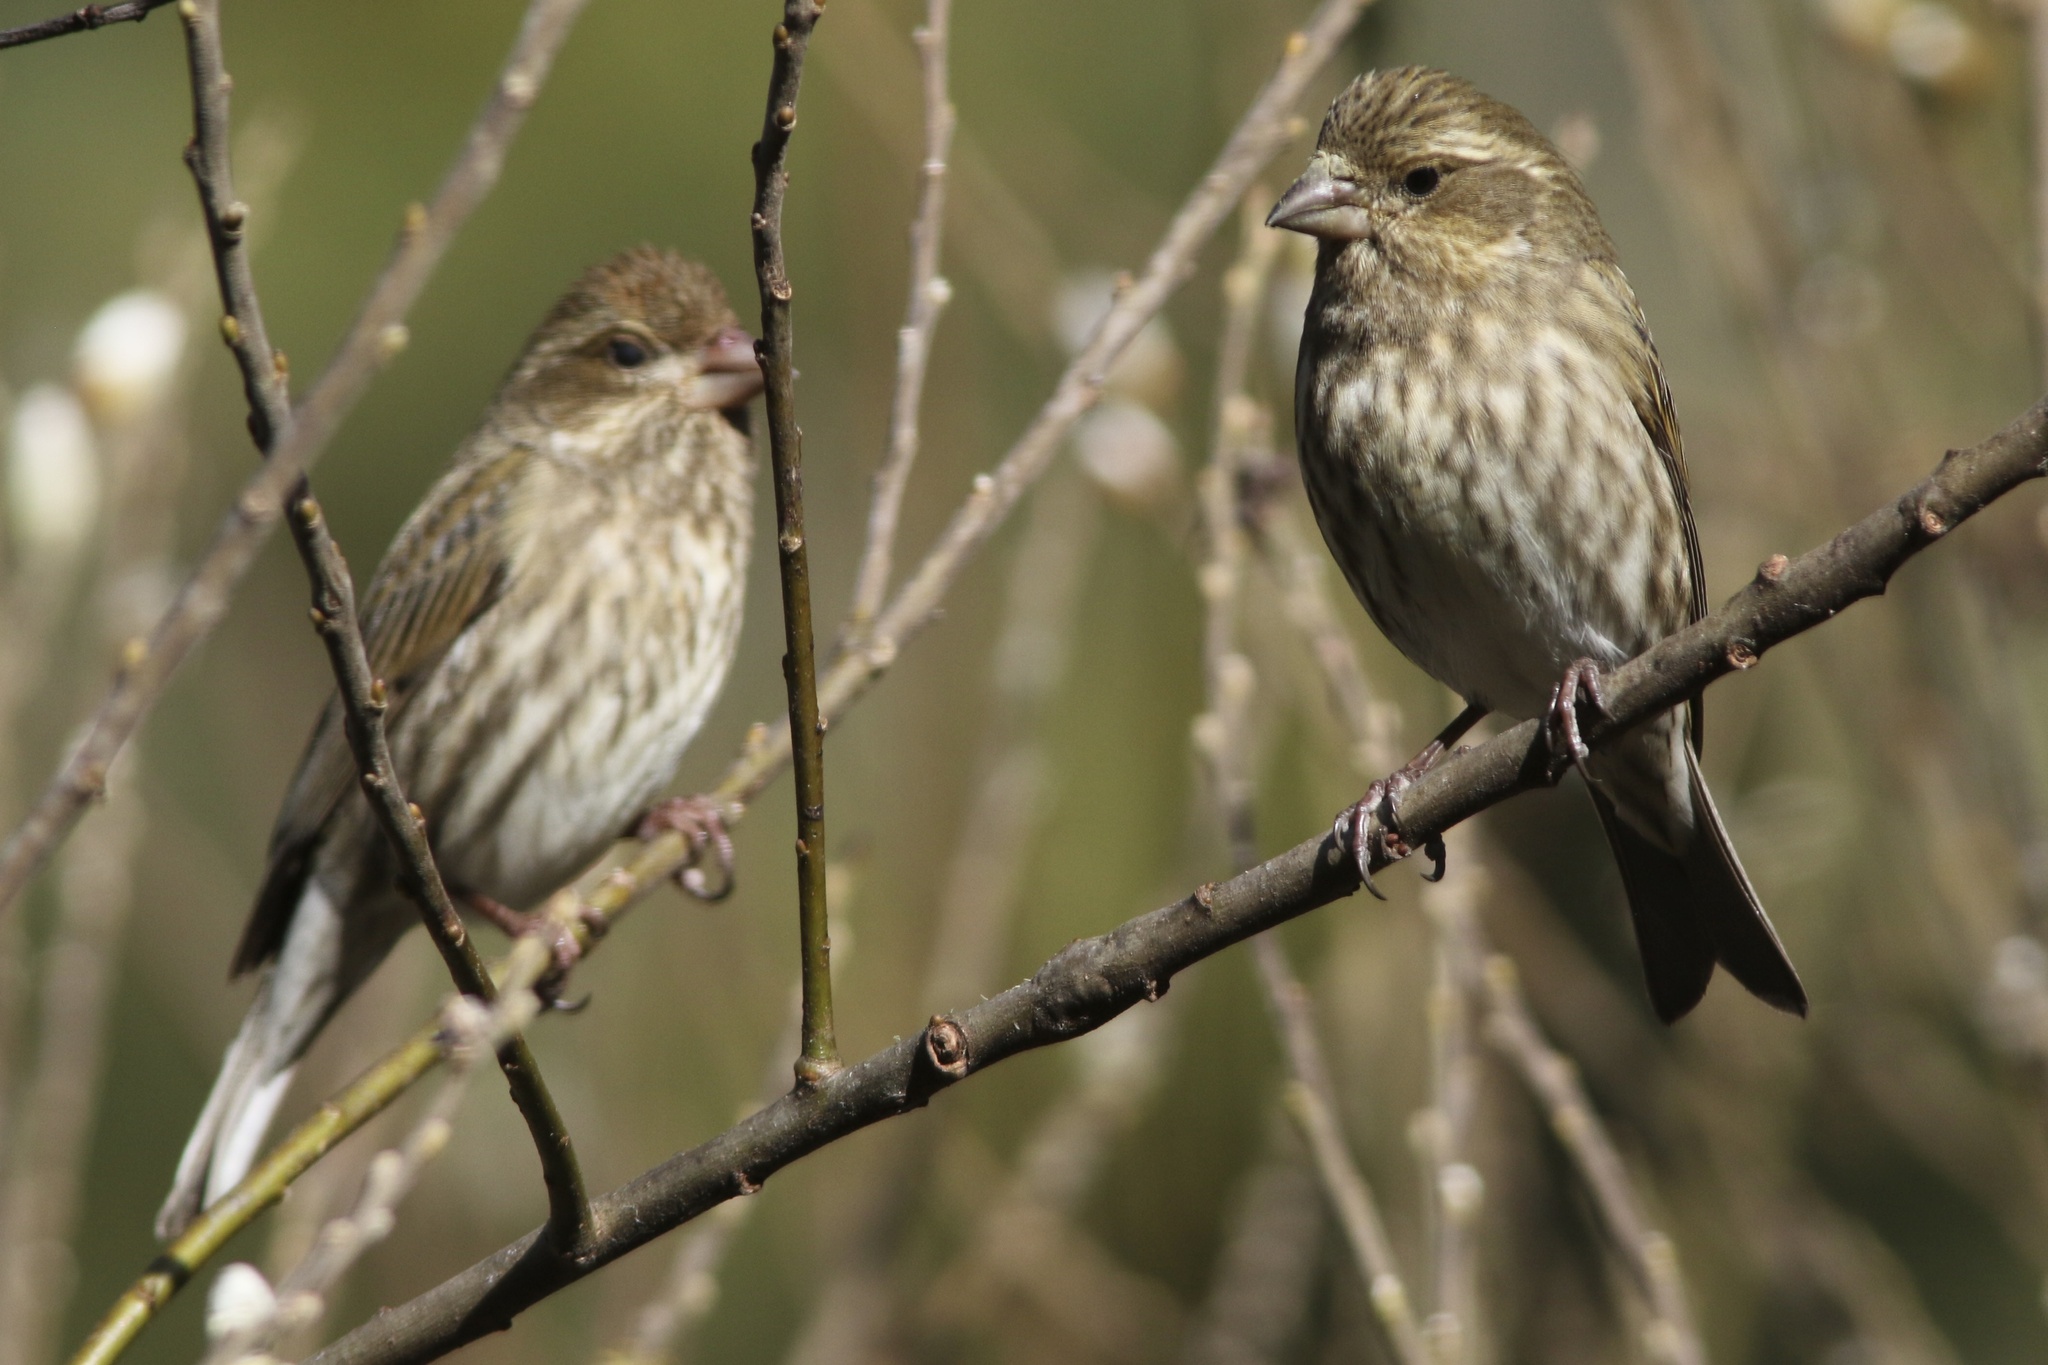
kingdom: Animalia
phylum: Chordata
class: Aves
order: Passeriformes
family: Fringillidae
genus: Haemorhous
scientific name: Haemorhous purpureus
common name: Purple finch
